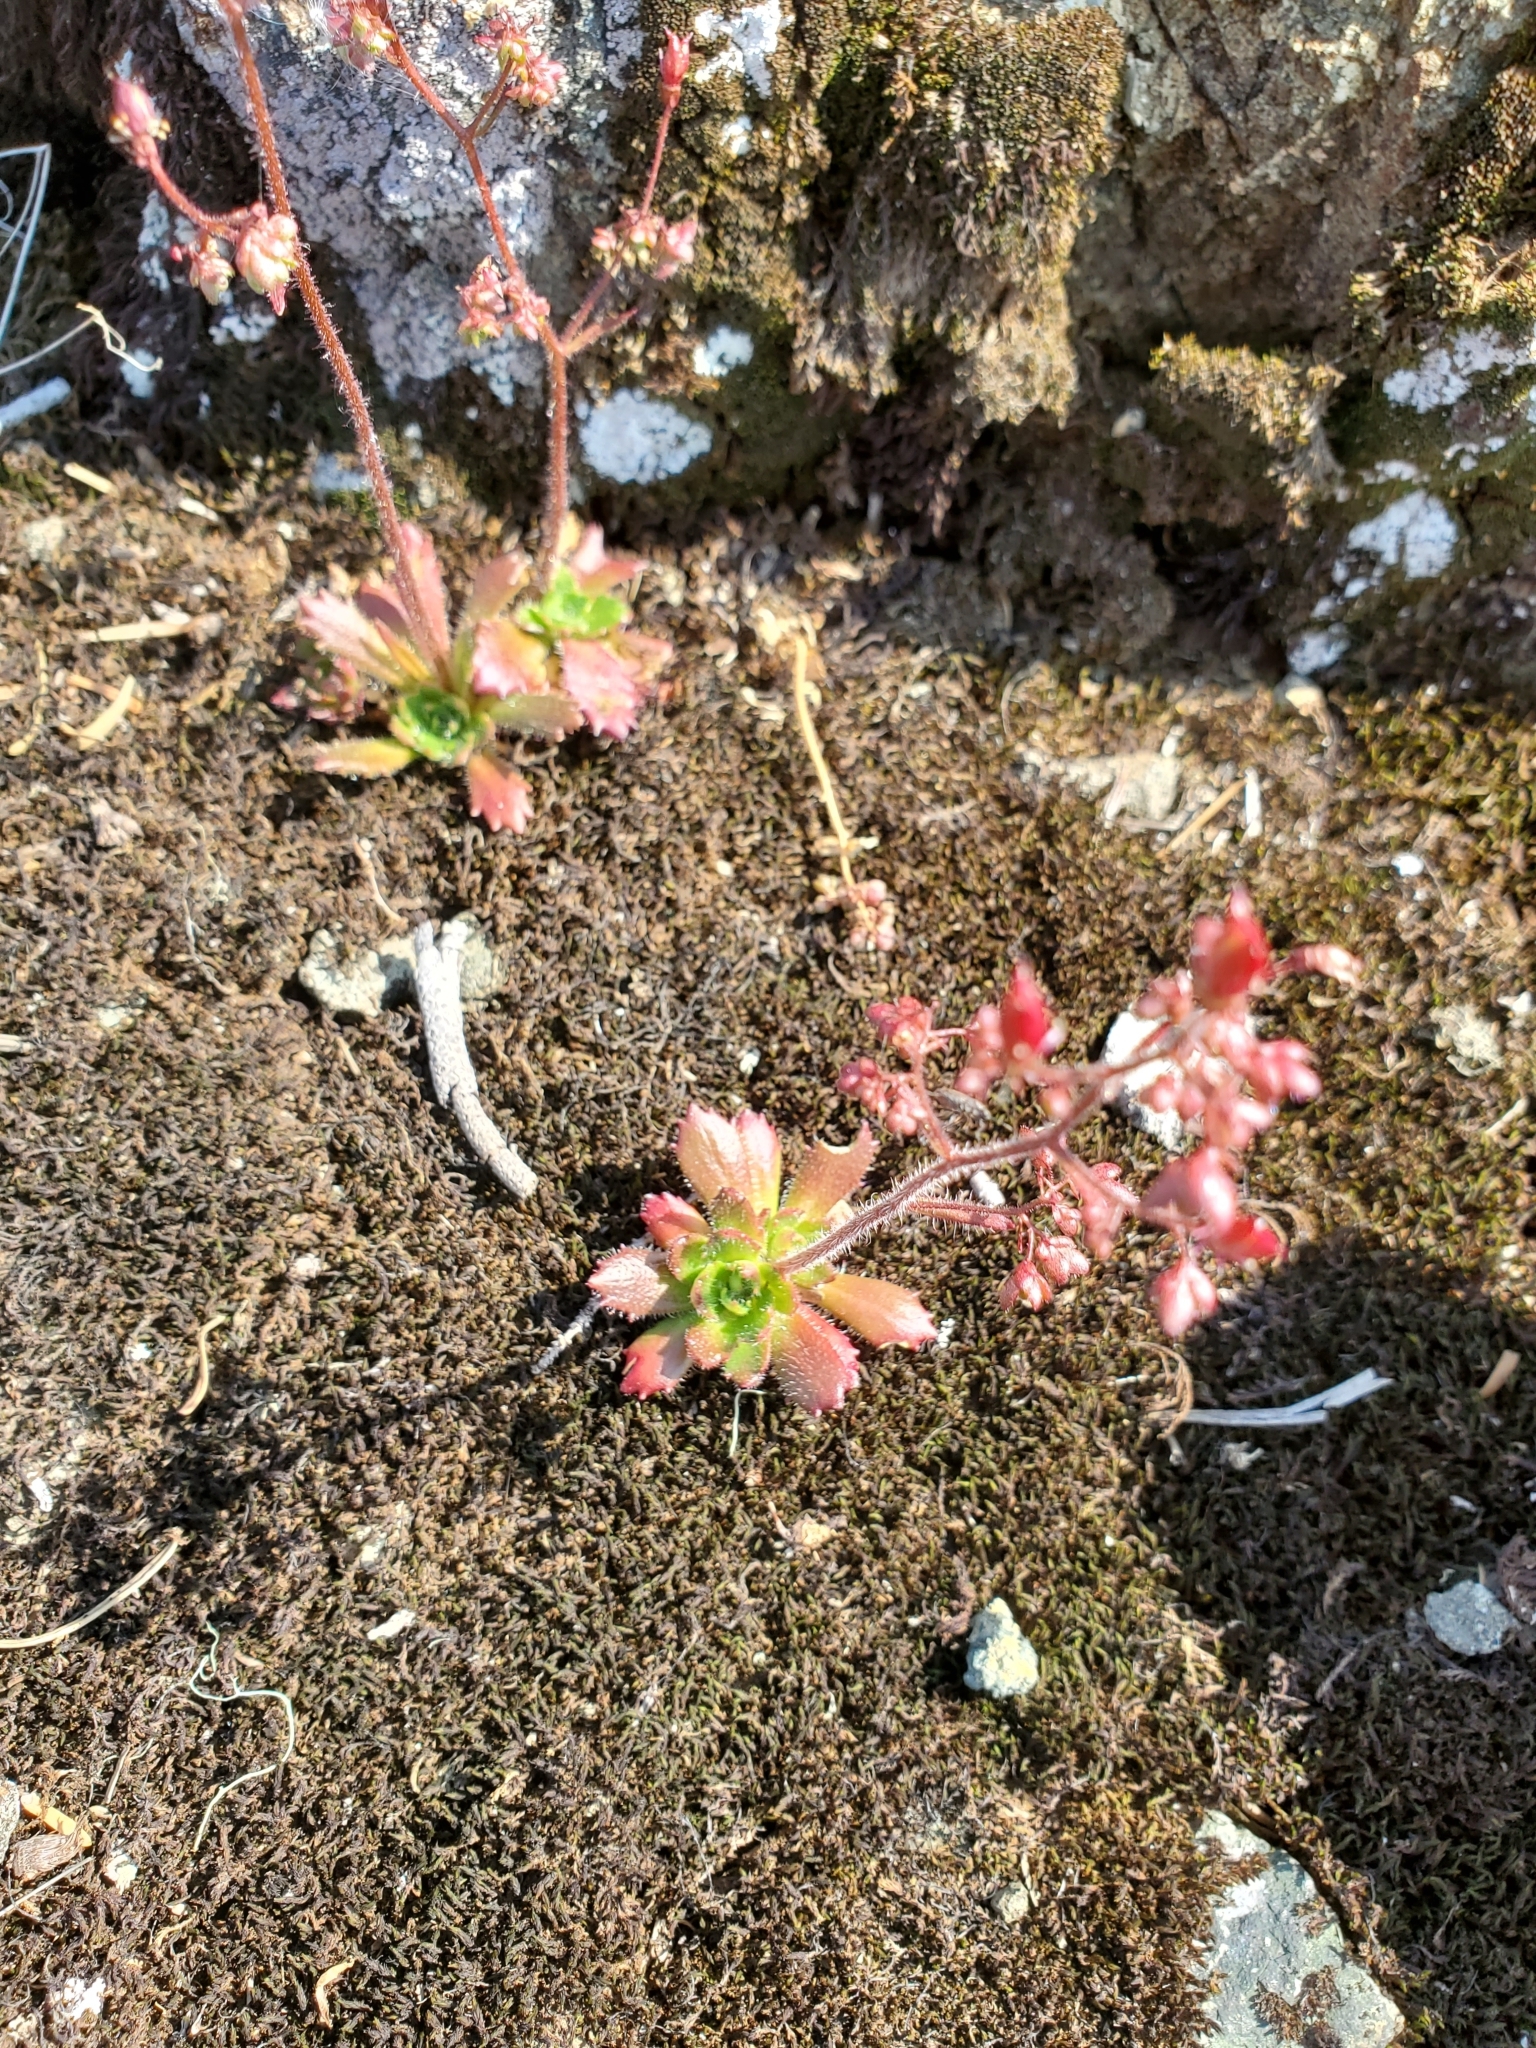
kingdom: Plantae
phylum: Tracheophyta
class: Magnoliopsida
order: Saxifragales
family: Saxifragaceae
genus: Micranthes
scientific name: Micranthes ferruginea
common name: Rusty saxifrage
